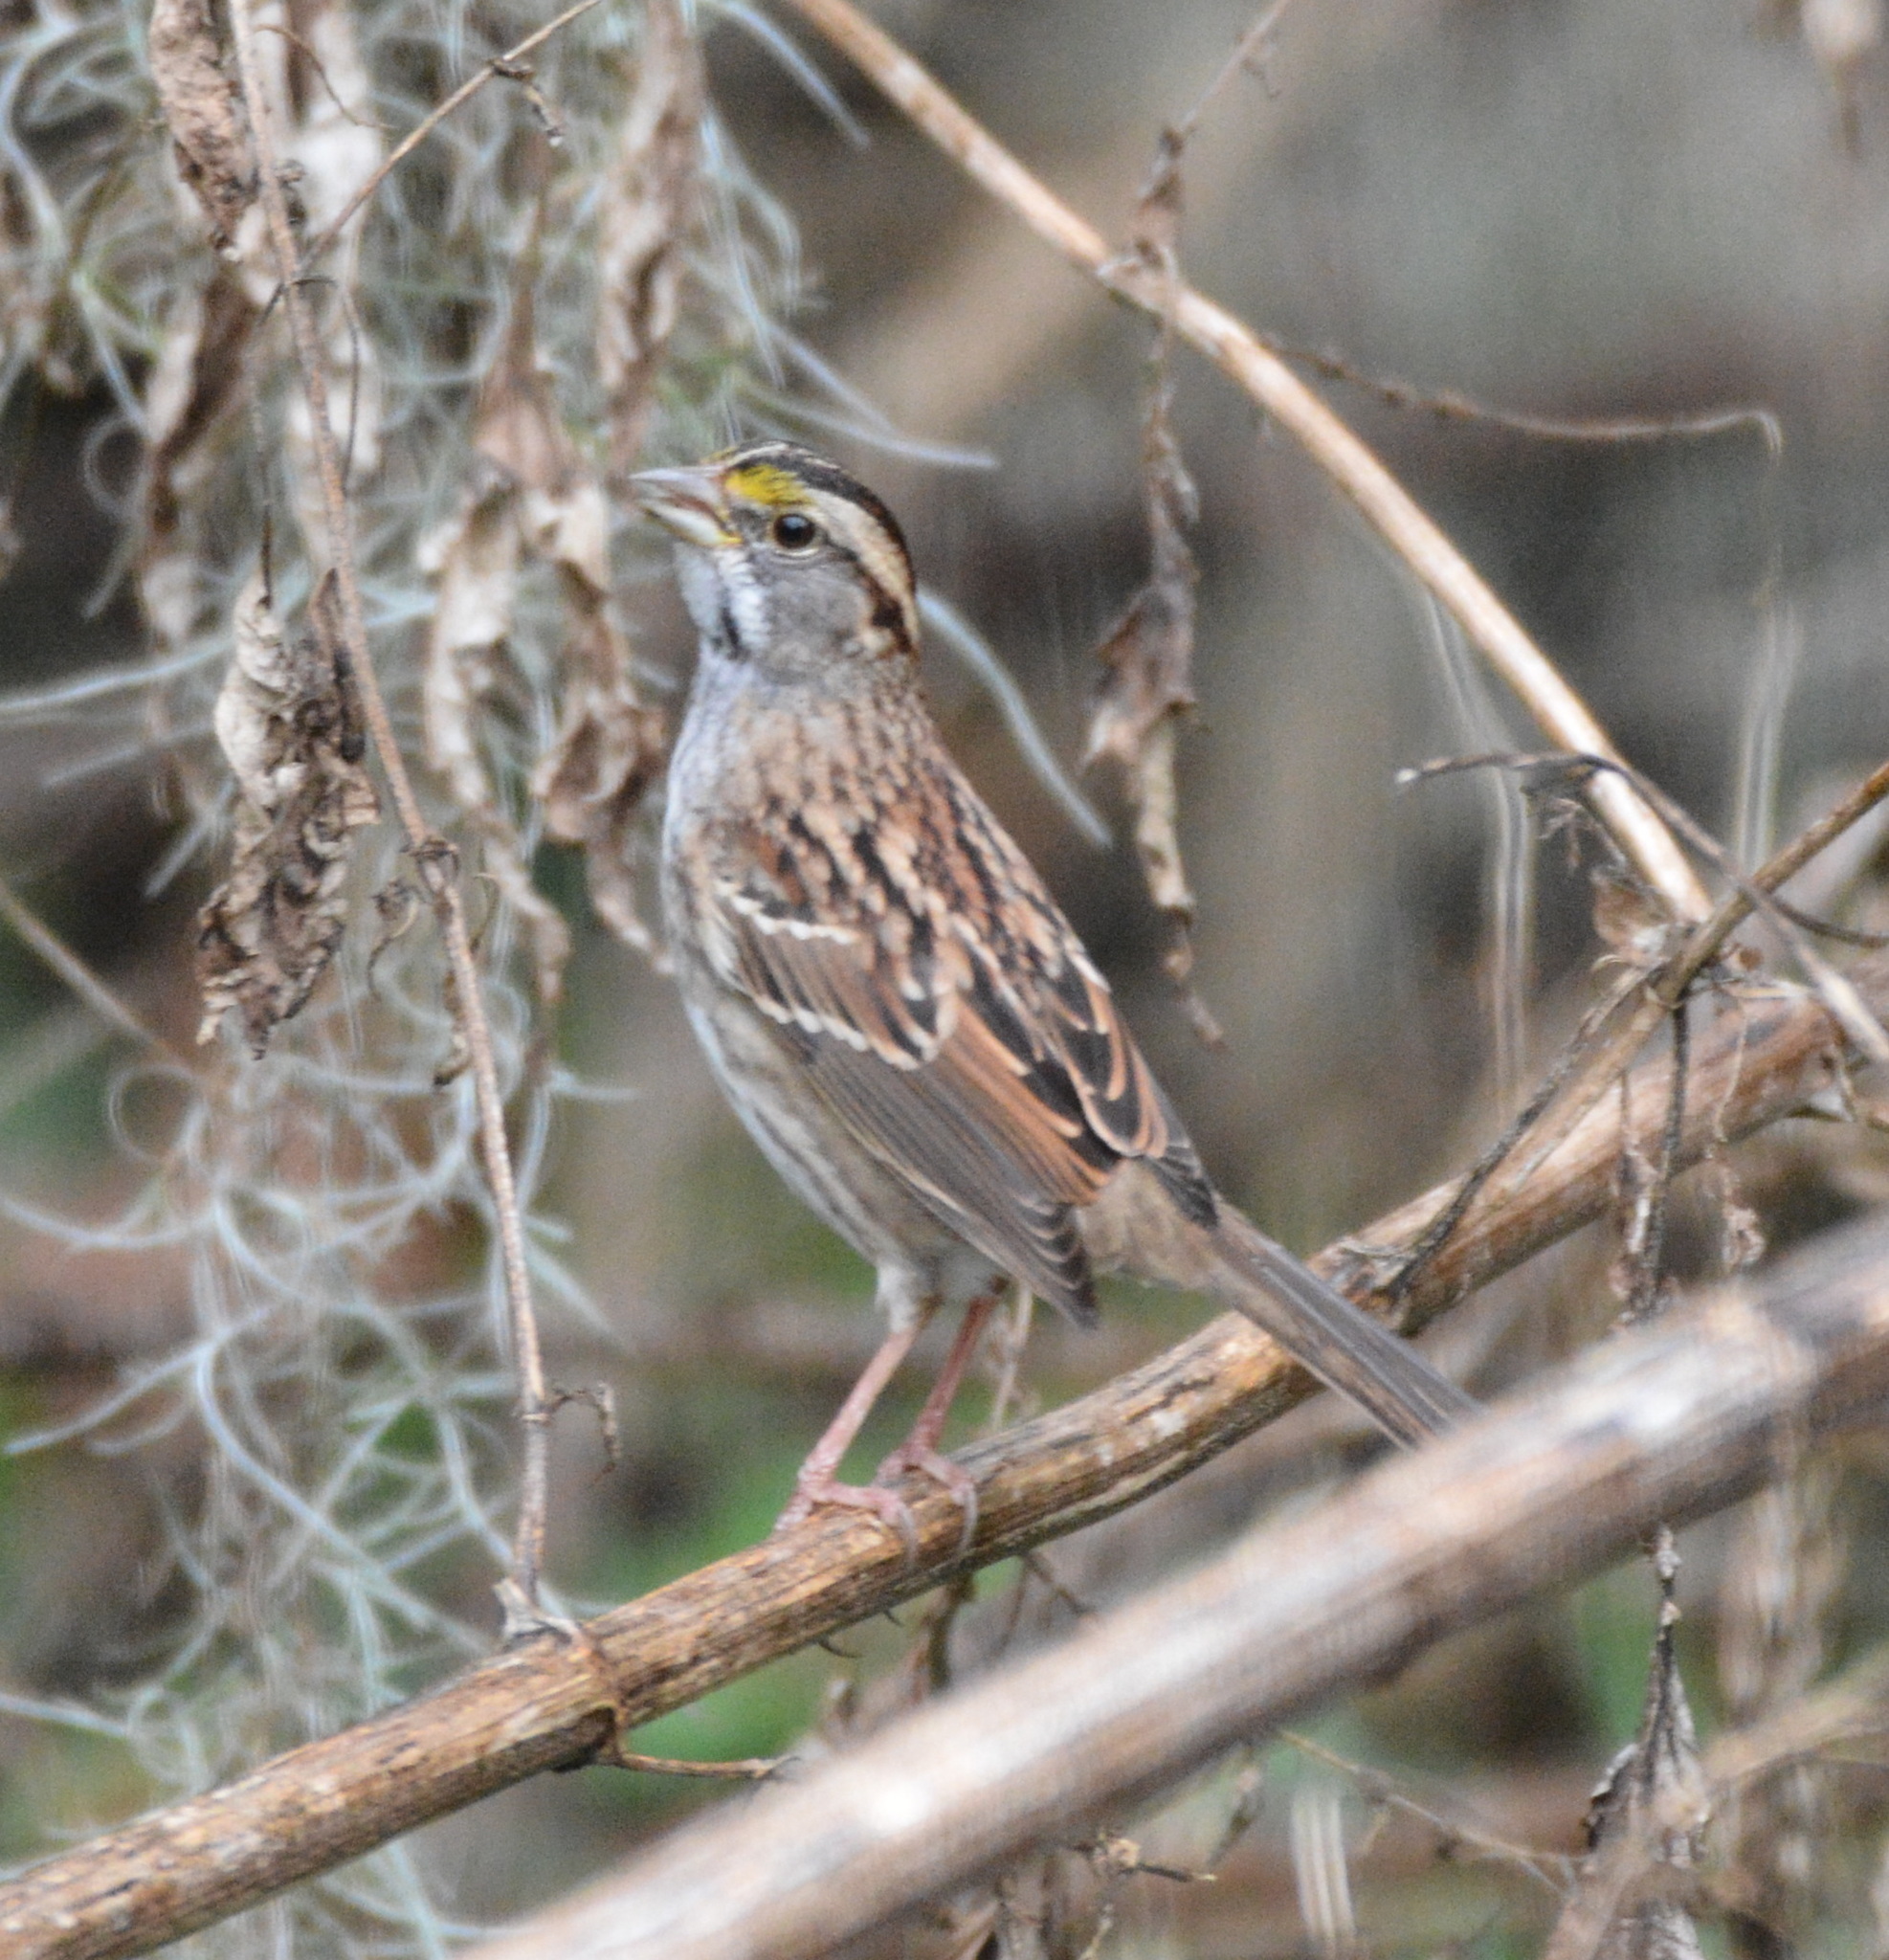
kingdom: Animalia
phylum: Chordata
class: Aves
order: Passeriformes
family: Passerellidae
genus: Zonotrichia
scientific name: Zonotrichia albicollis
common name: White-throated sparrow
